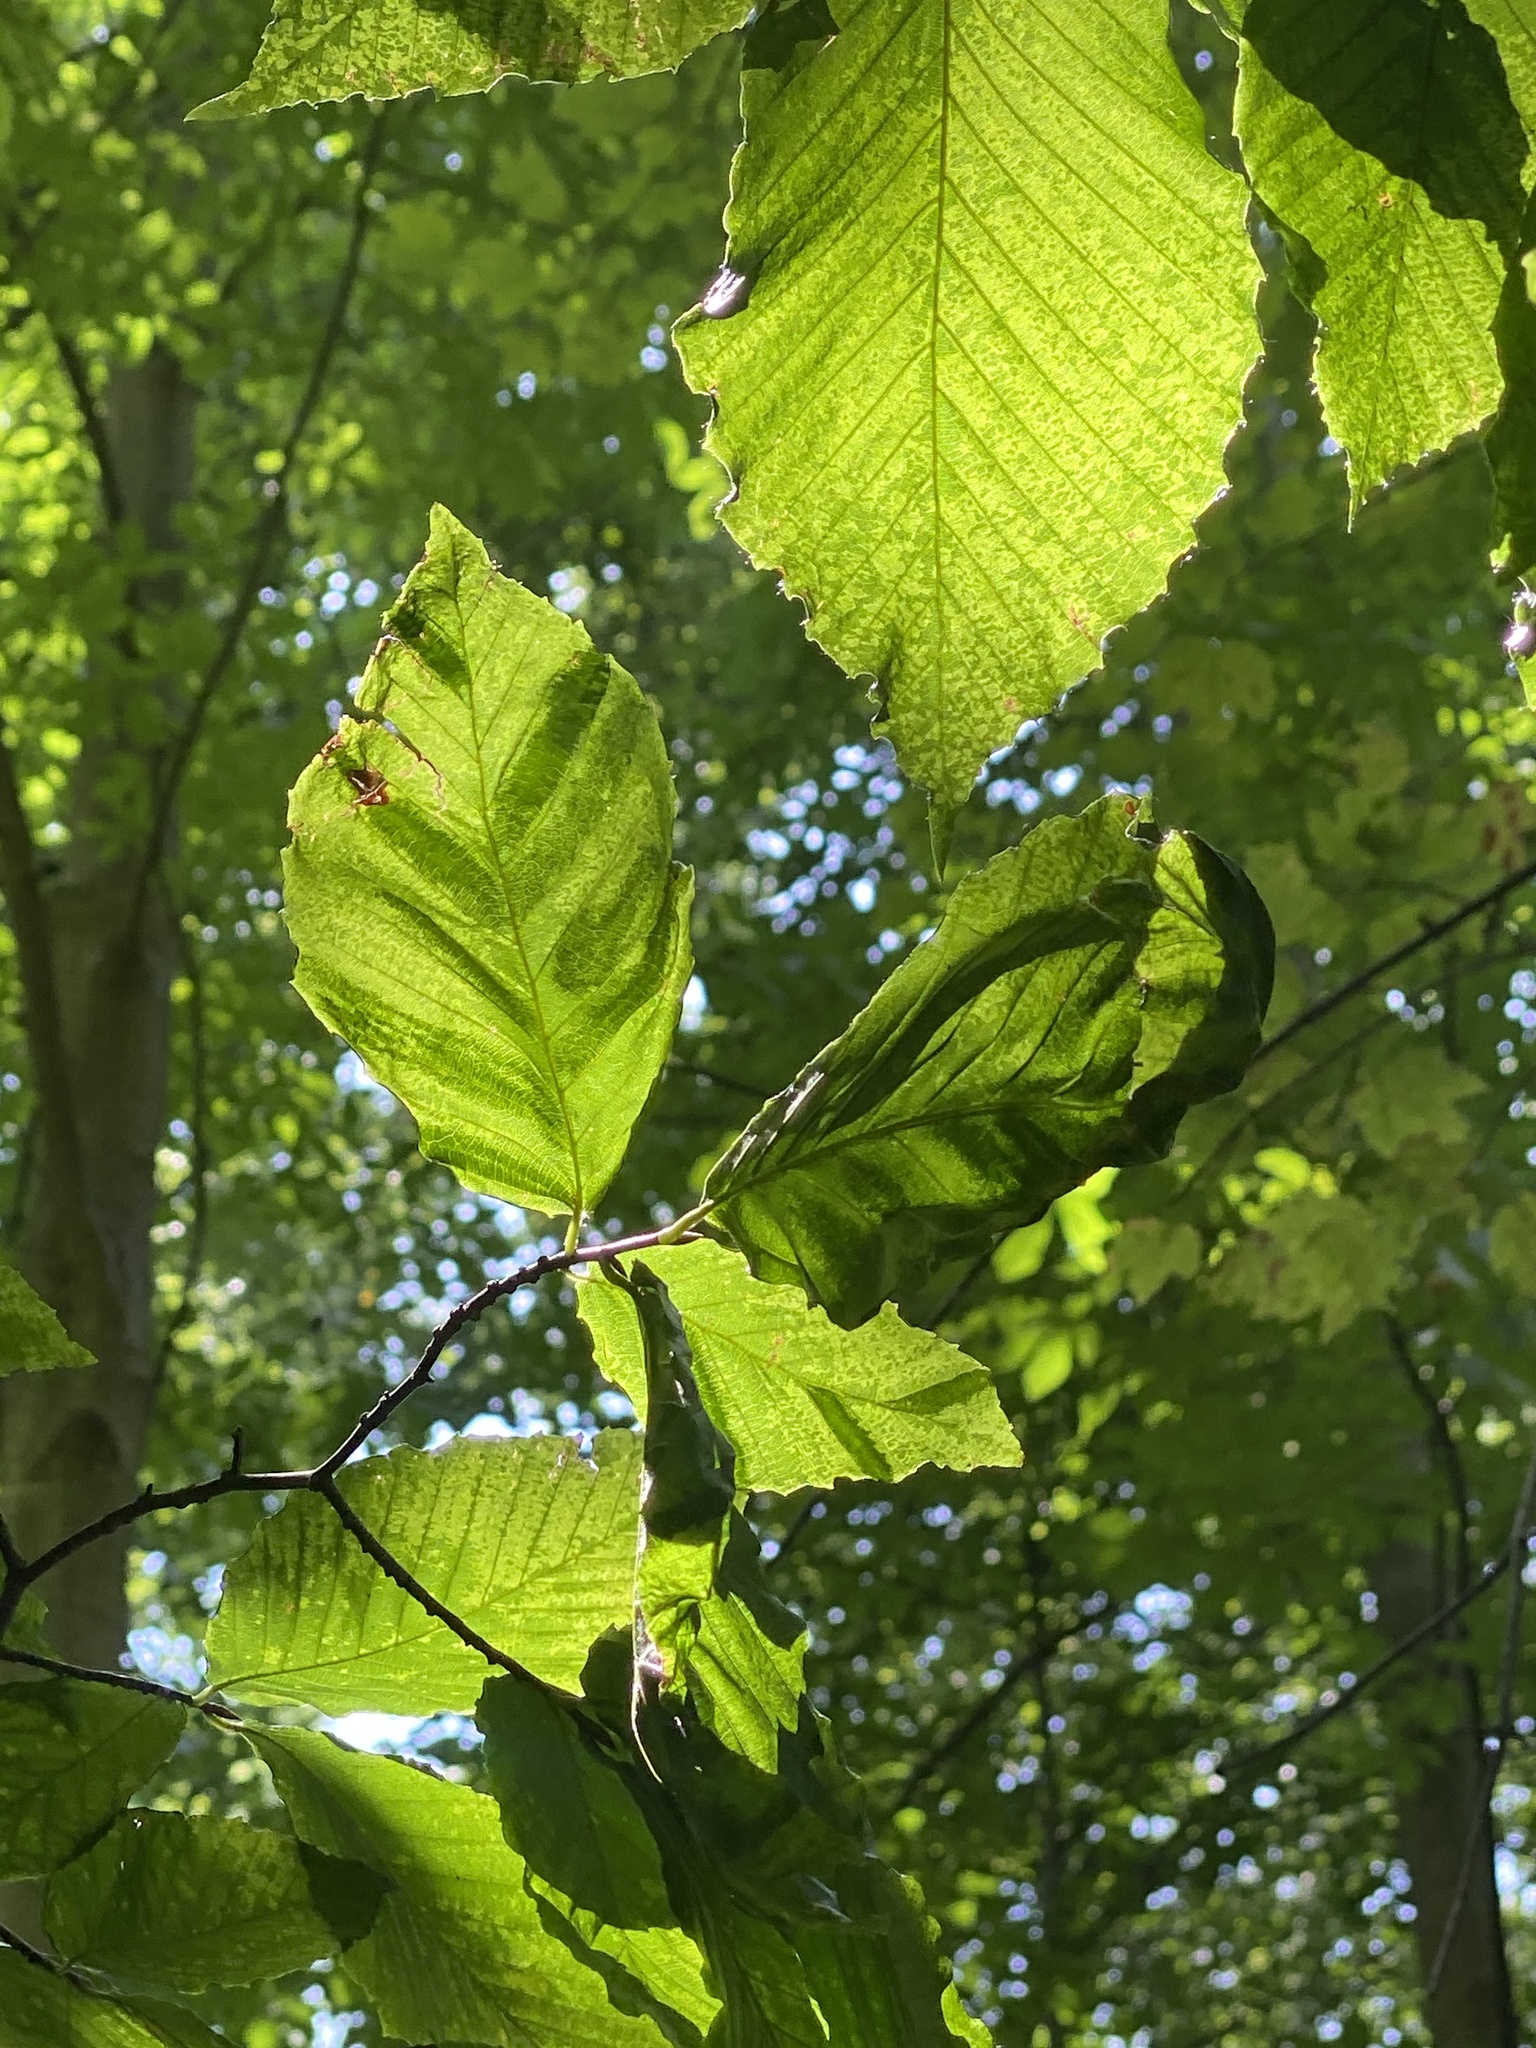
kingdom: Animalia
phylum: Nematoda
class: Chromadorea
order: Rhabditida
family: Anguinidae
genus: Litylenchus
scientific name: Litylenchus crenatae
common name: Beech leaf disease
